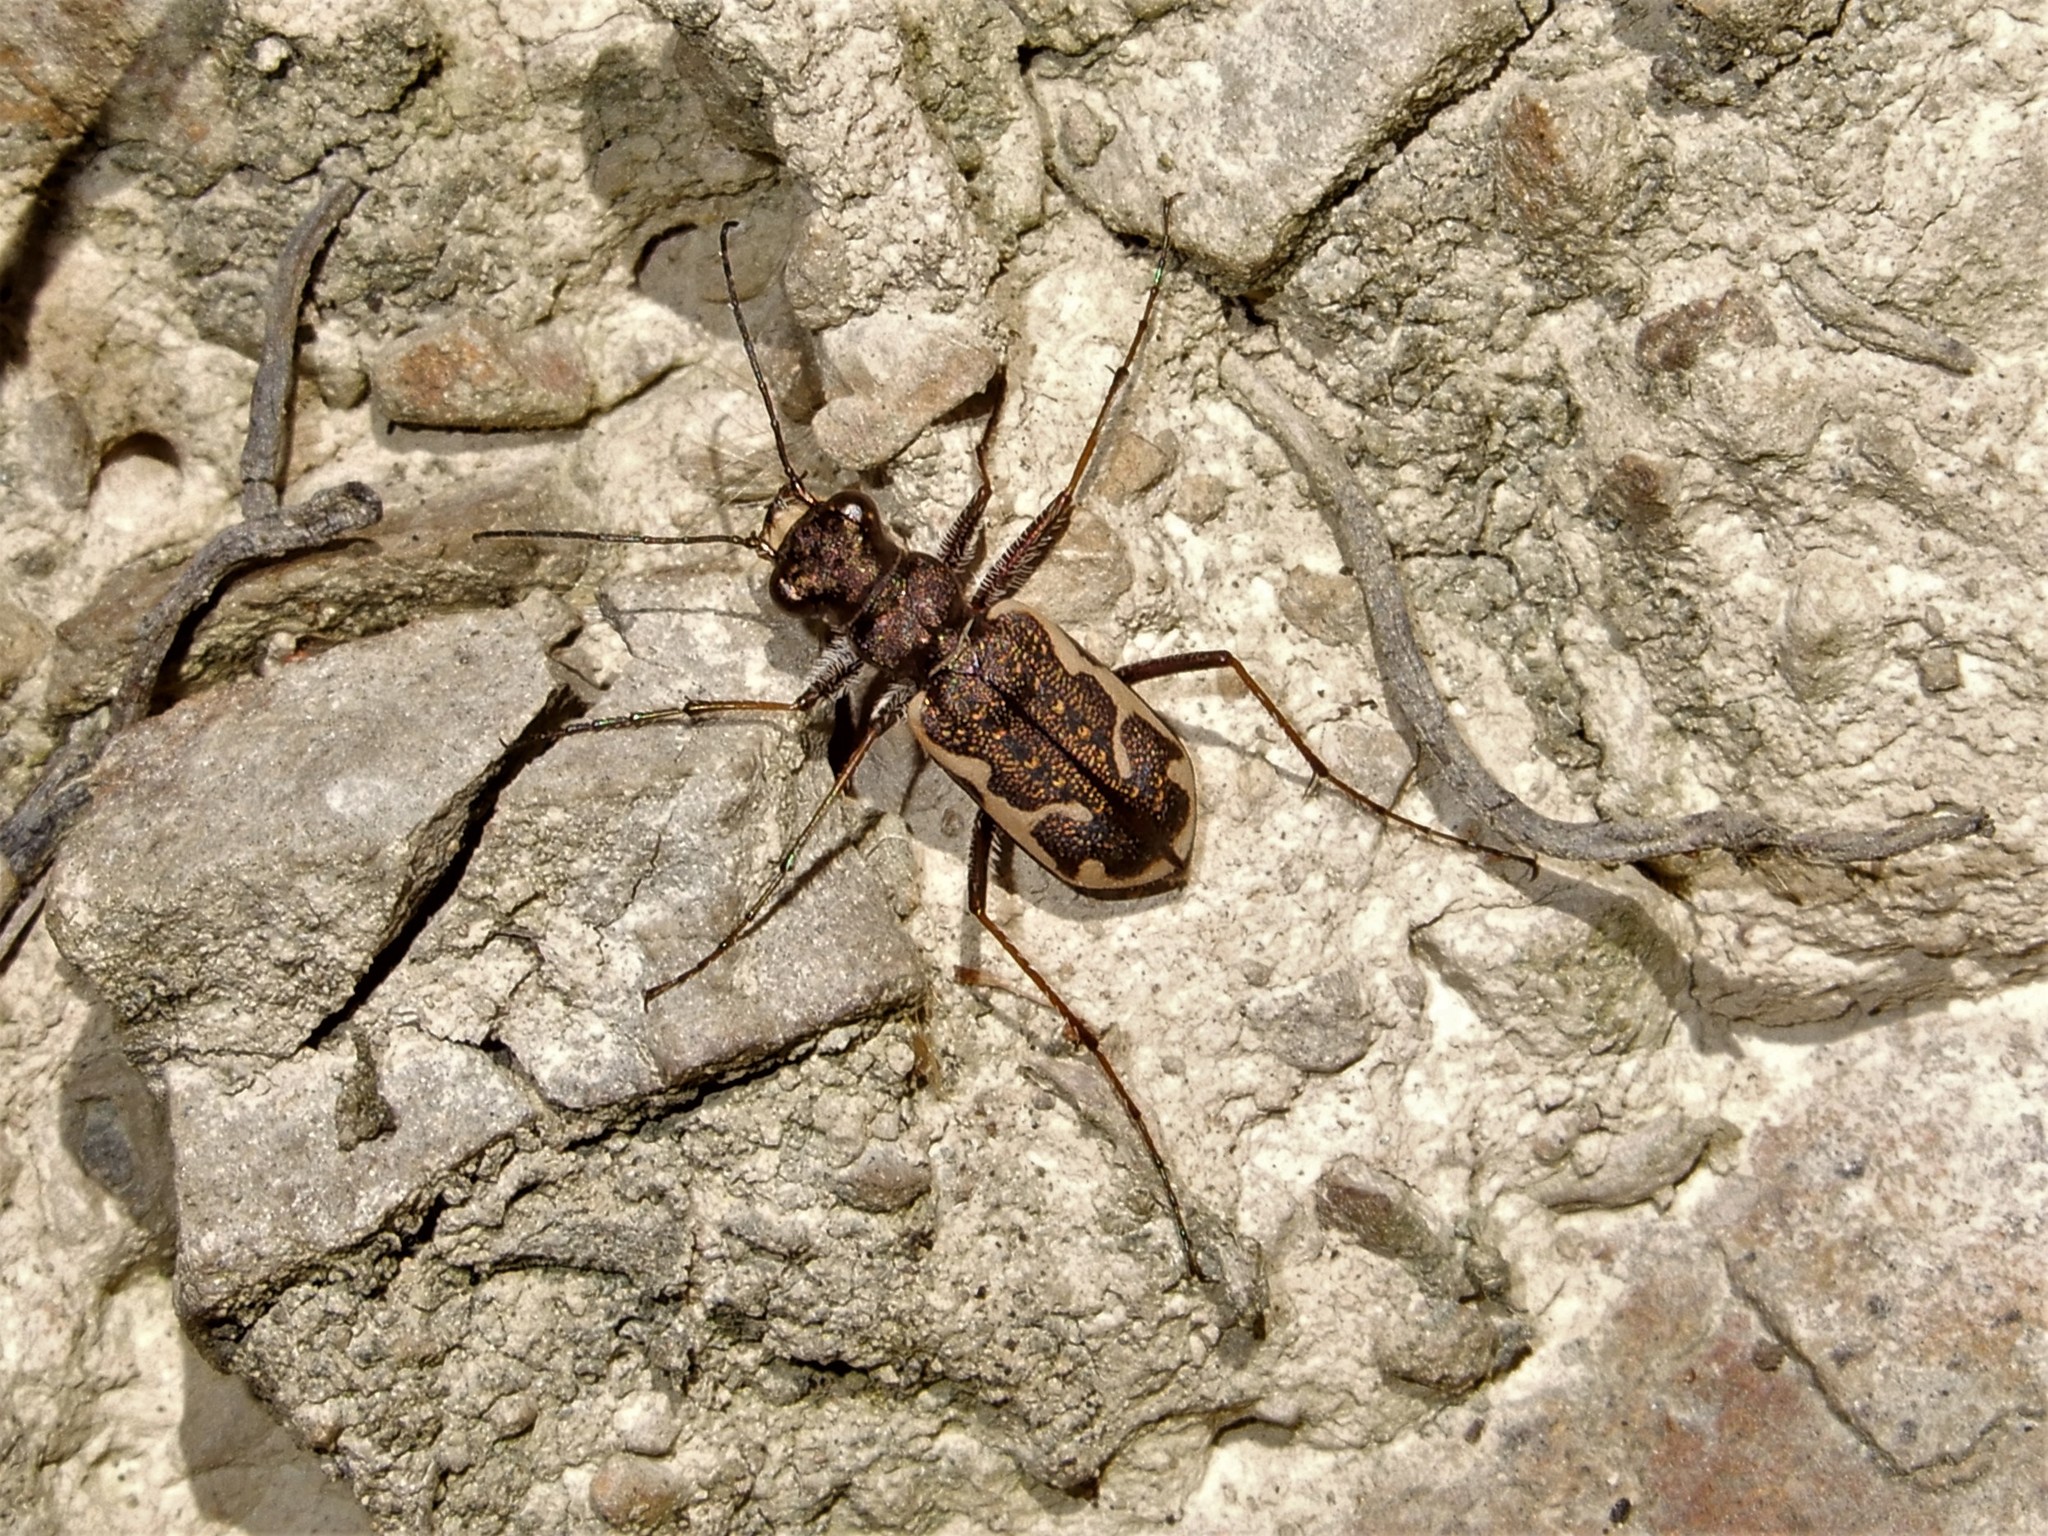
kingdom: Animalia
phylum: Arthropoda
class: Insecta
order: Coleoptera
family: Carabidae
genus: Neocicindela
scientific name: Neocicindela tuberculata
